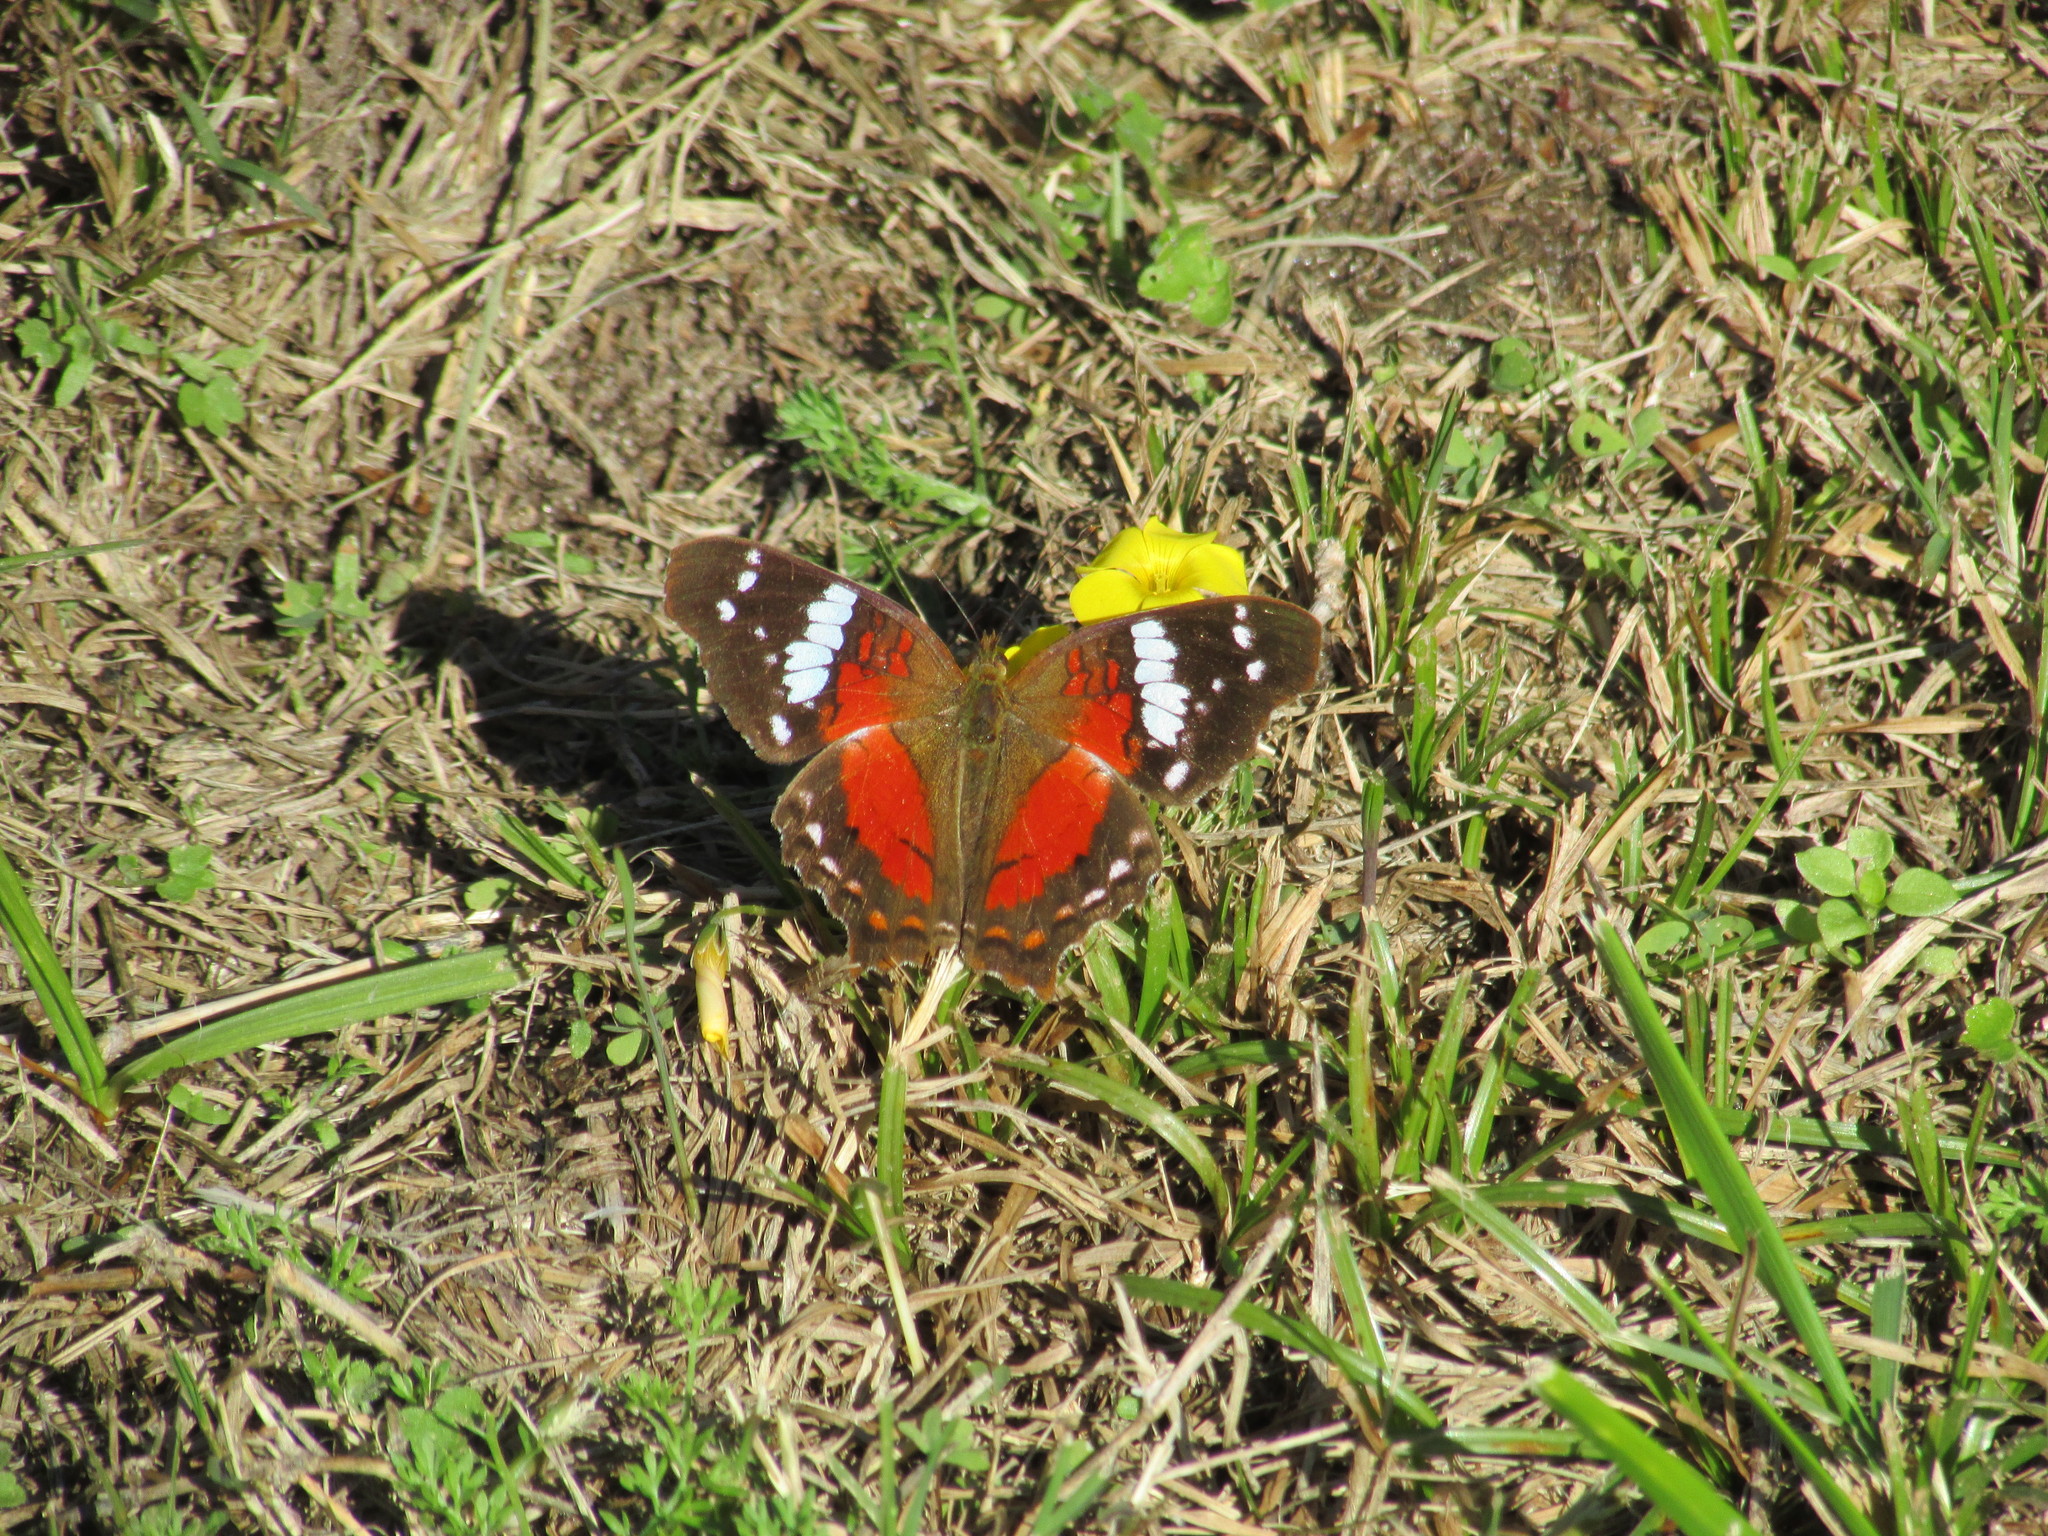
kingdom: Animalia
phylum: Arthropoda
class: Insecta
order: Lepidoptera
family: Nymphalidae
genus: Anartia
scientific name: Anartia amathea
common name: Red peacock
